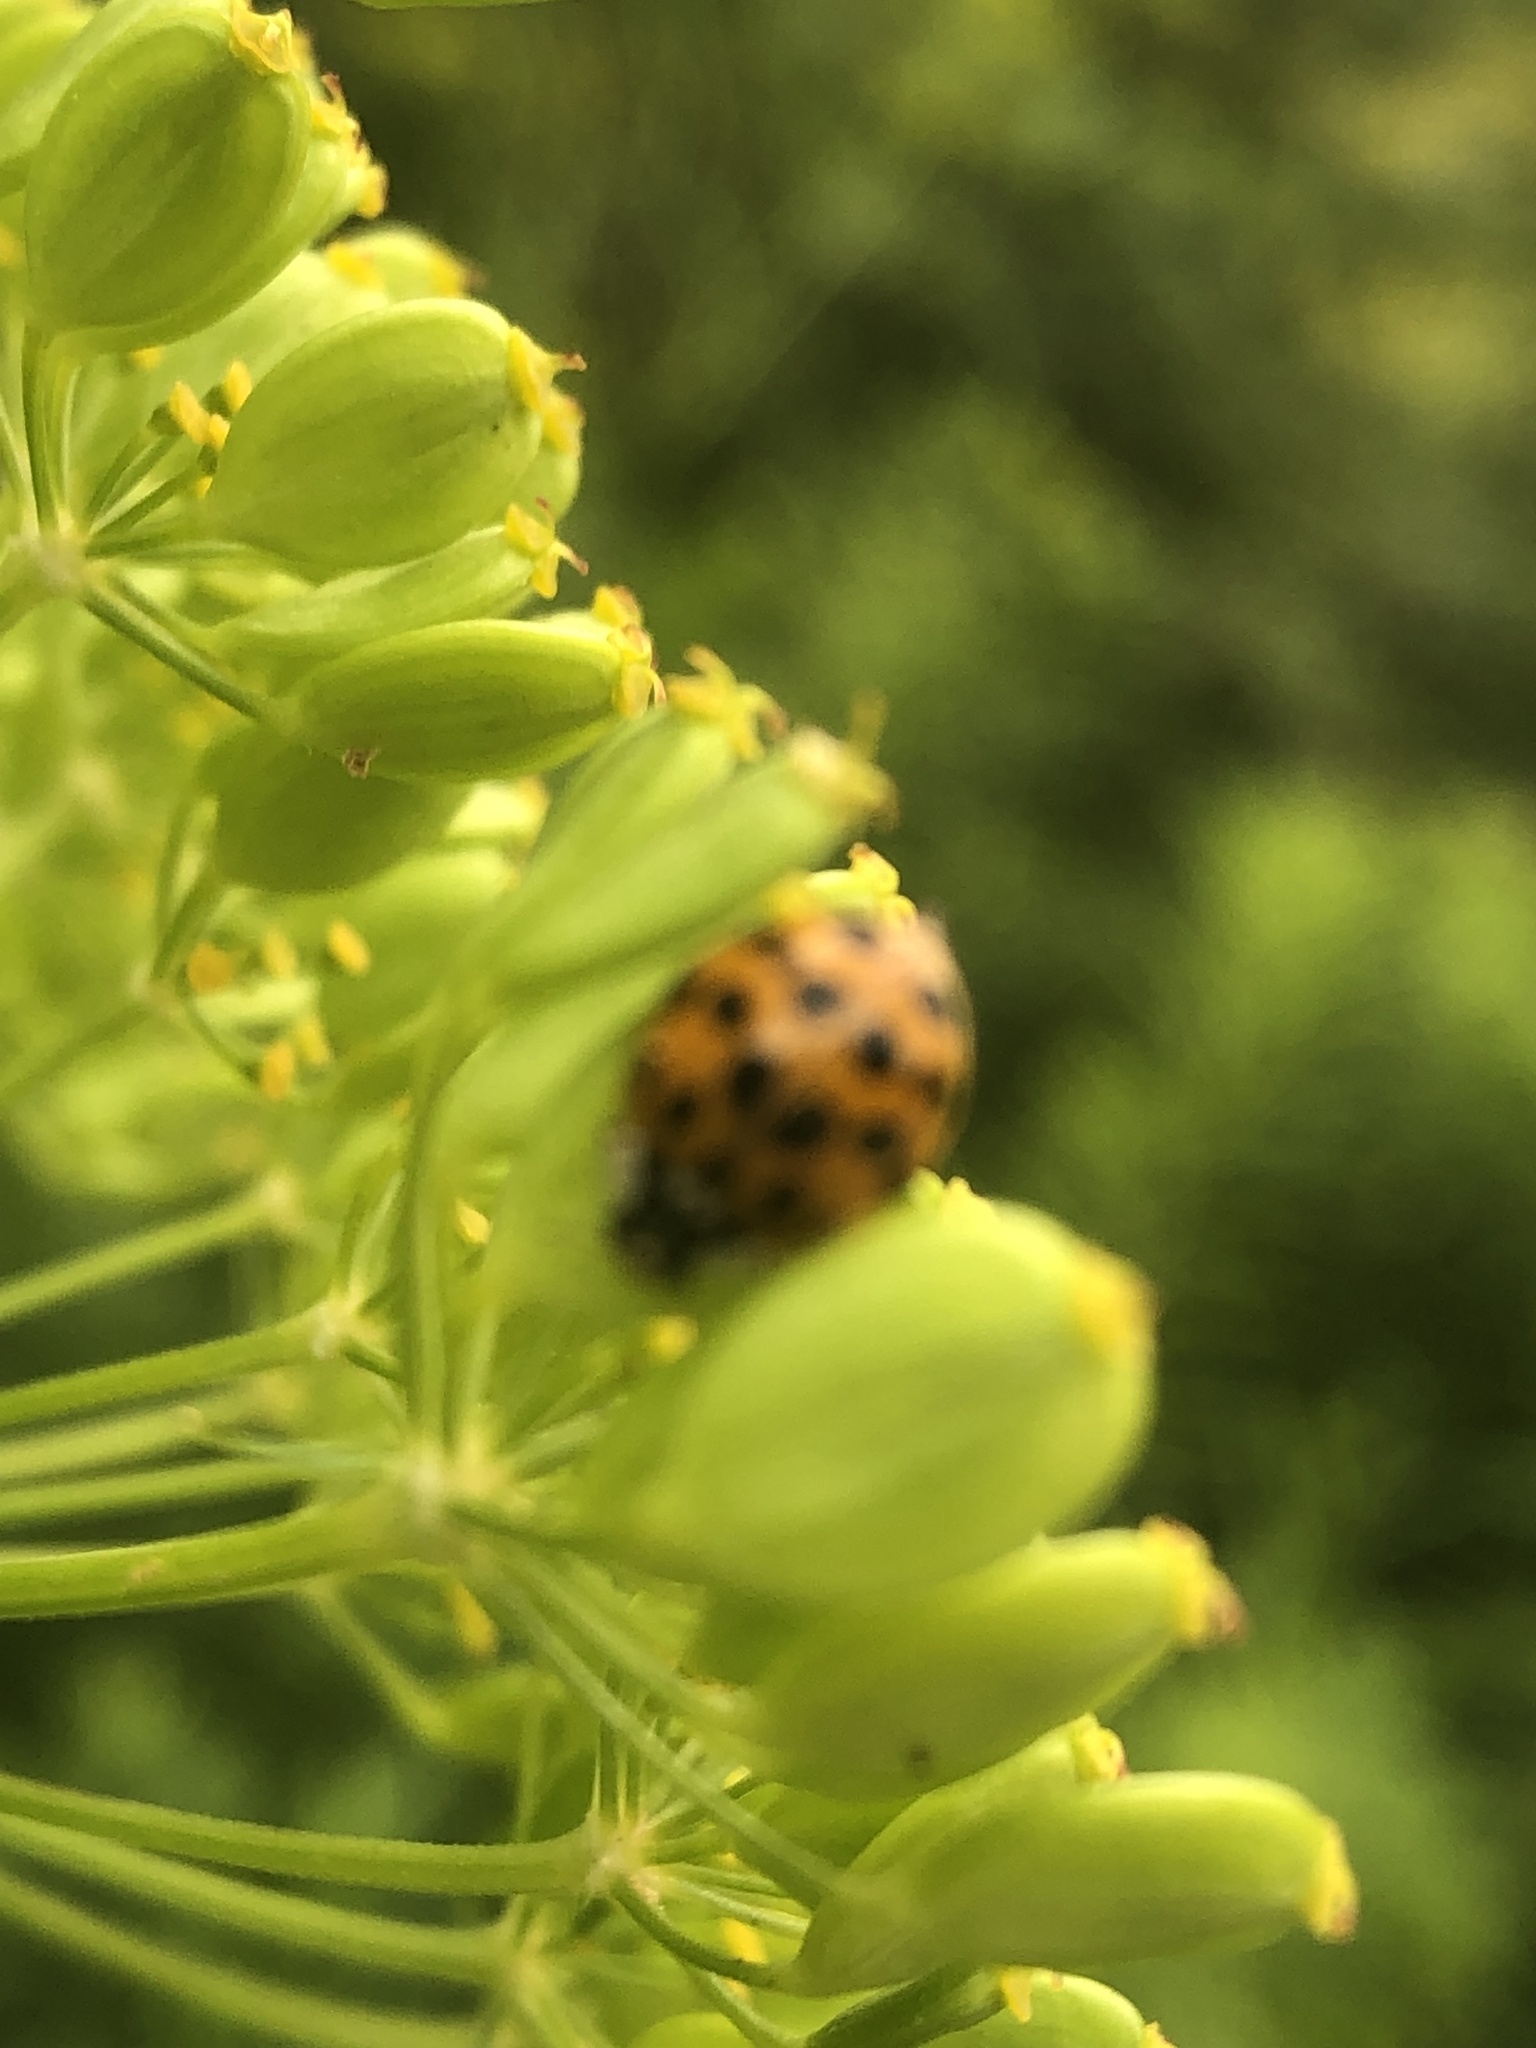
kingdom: Animalia
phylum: Arthropoda
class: Insecta
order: Coleoptera
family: Coccinellidae
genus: Harmonia
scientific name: Harmonia axyridis
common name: Harlequin ladybird
